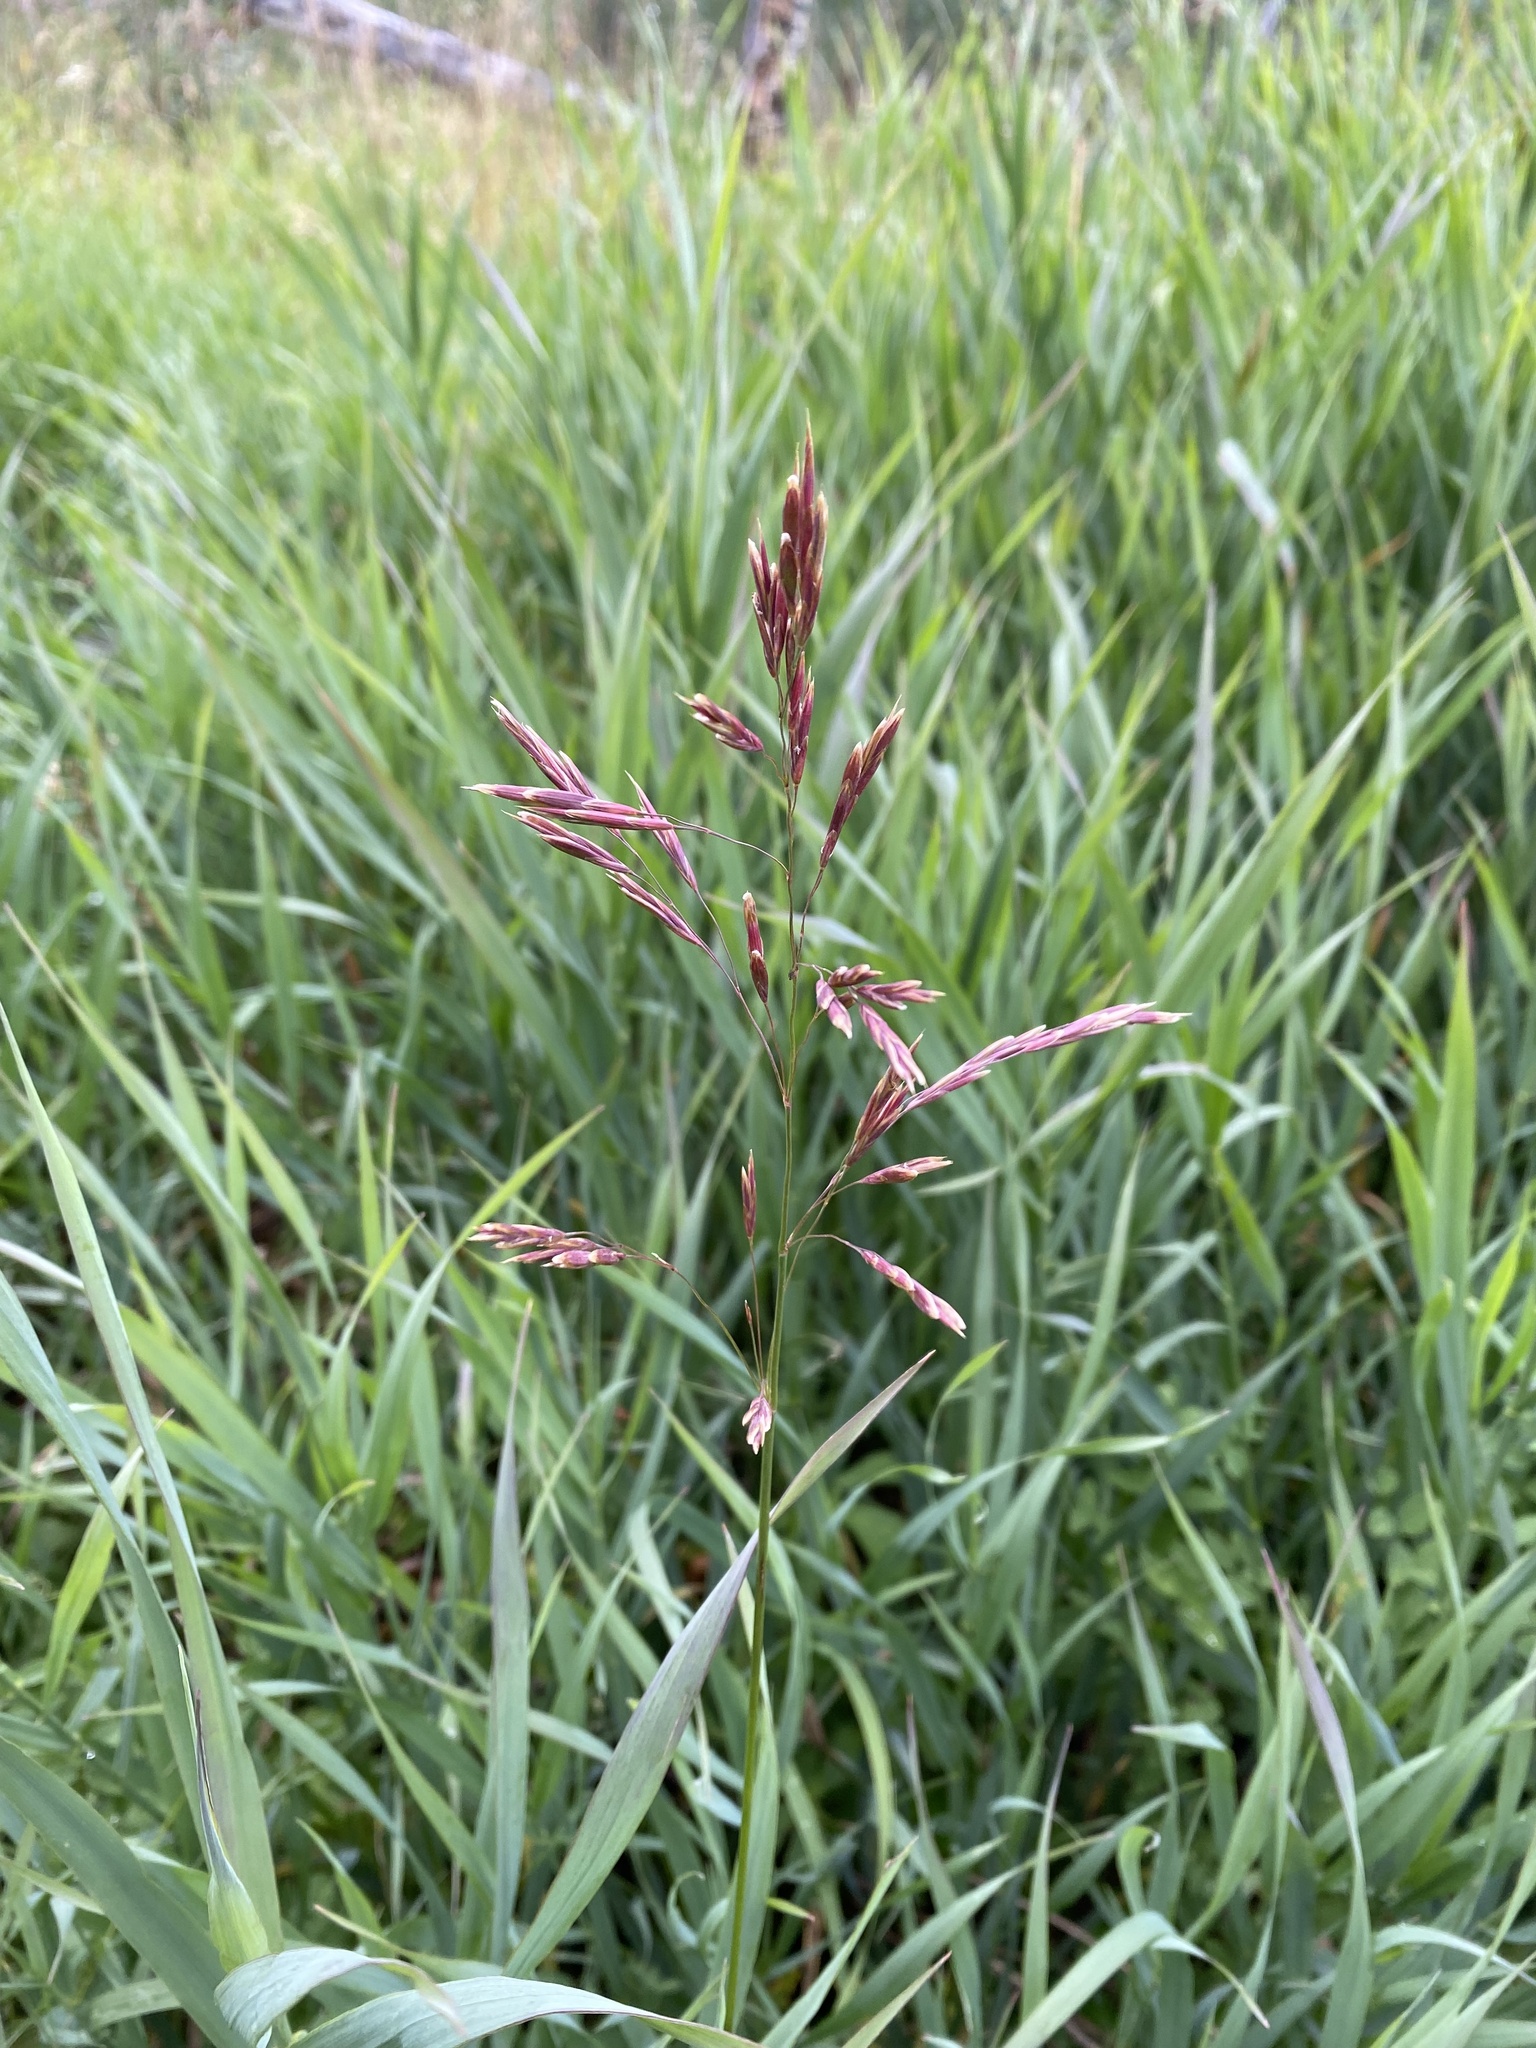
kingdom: Plantae
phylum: Tracheophyta
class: Liliopsida
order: Poales
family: Poaceae
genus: Bromus
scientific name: Bromus inermis
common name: Smooth brome
